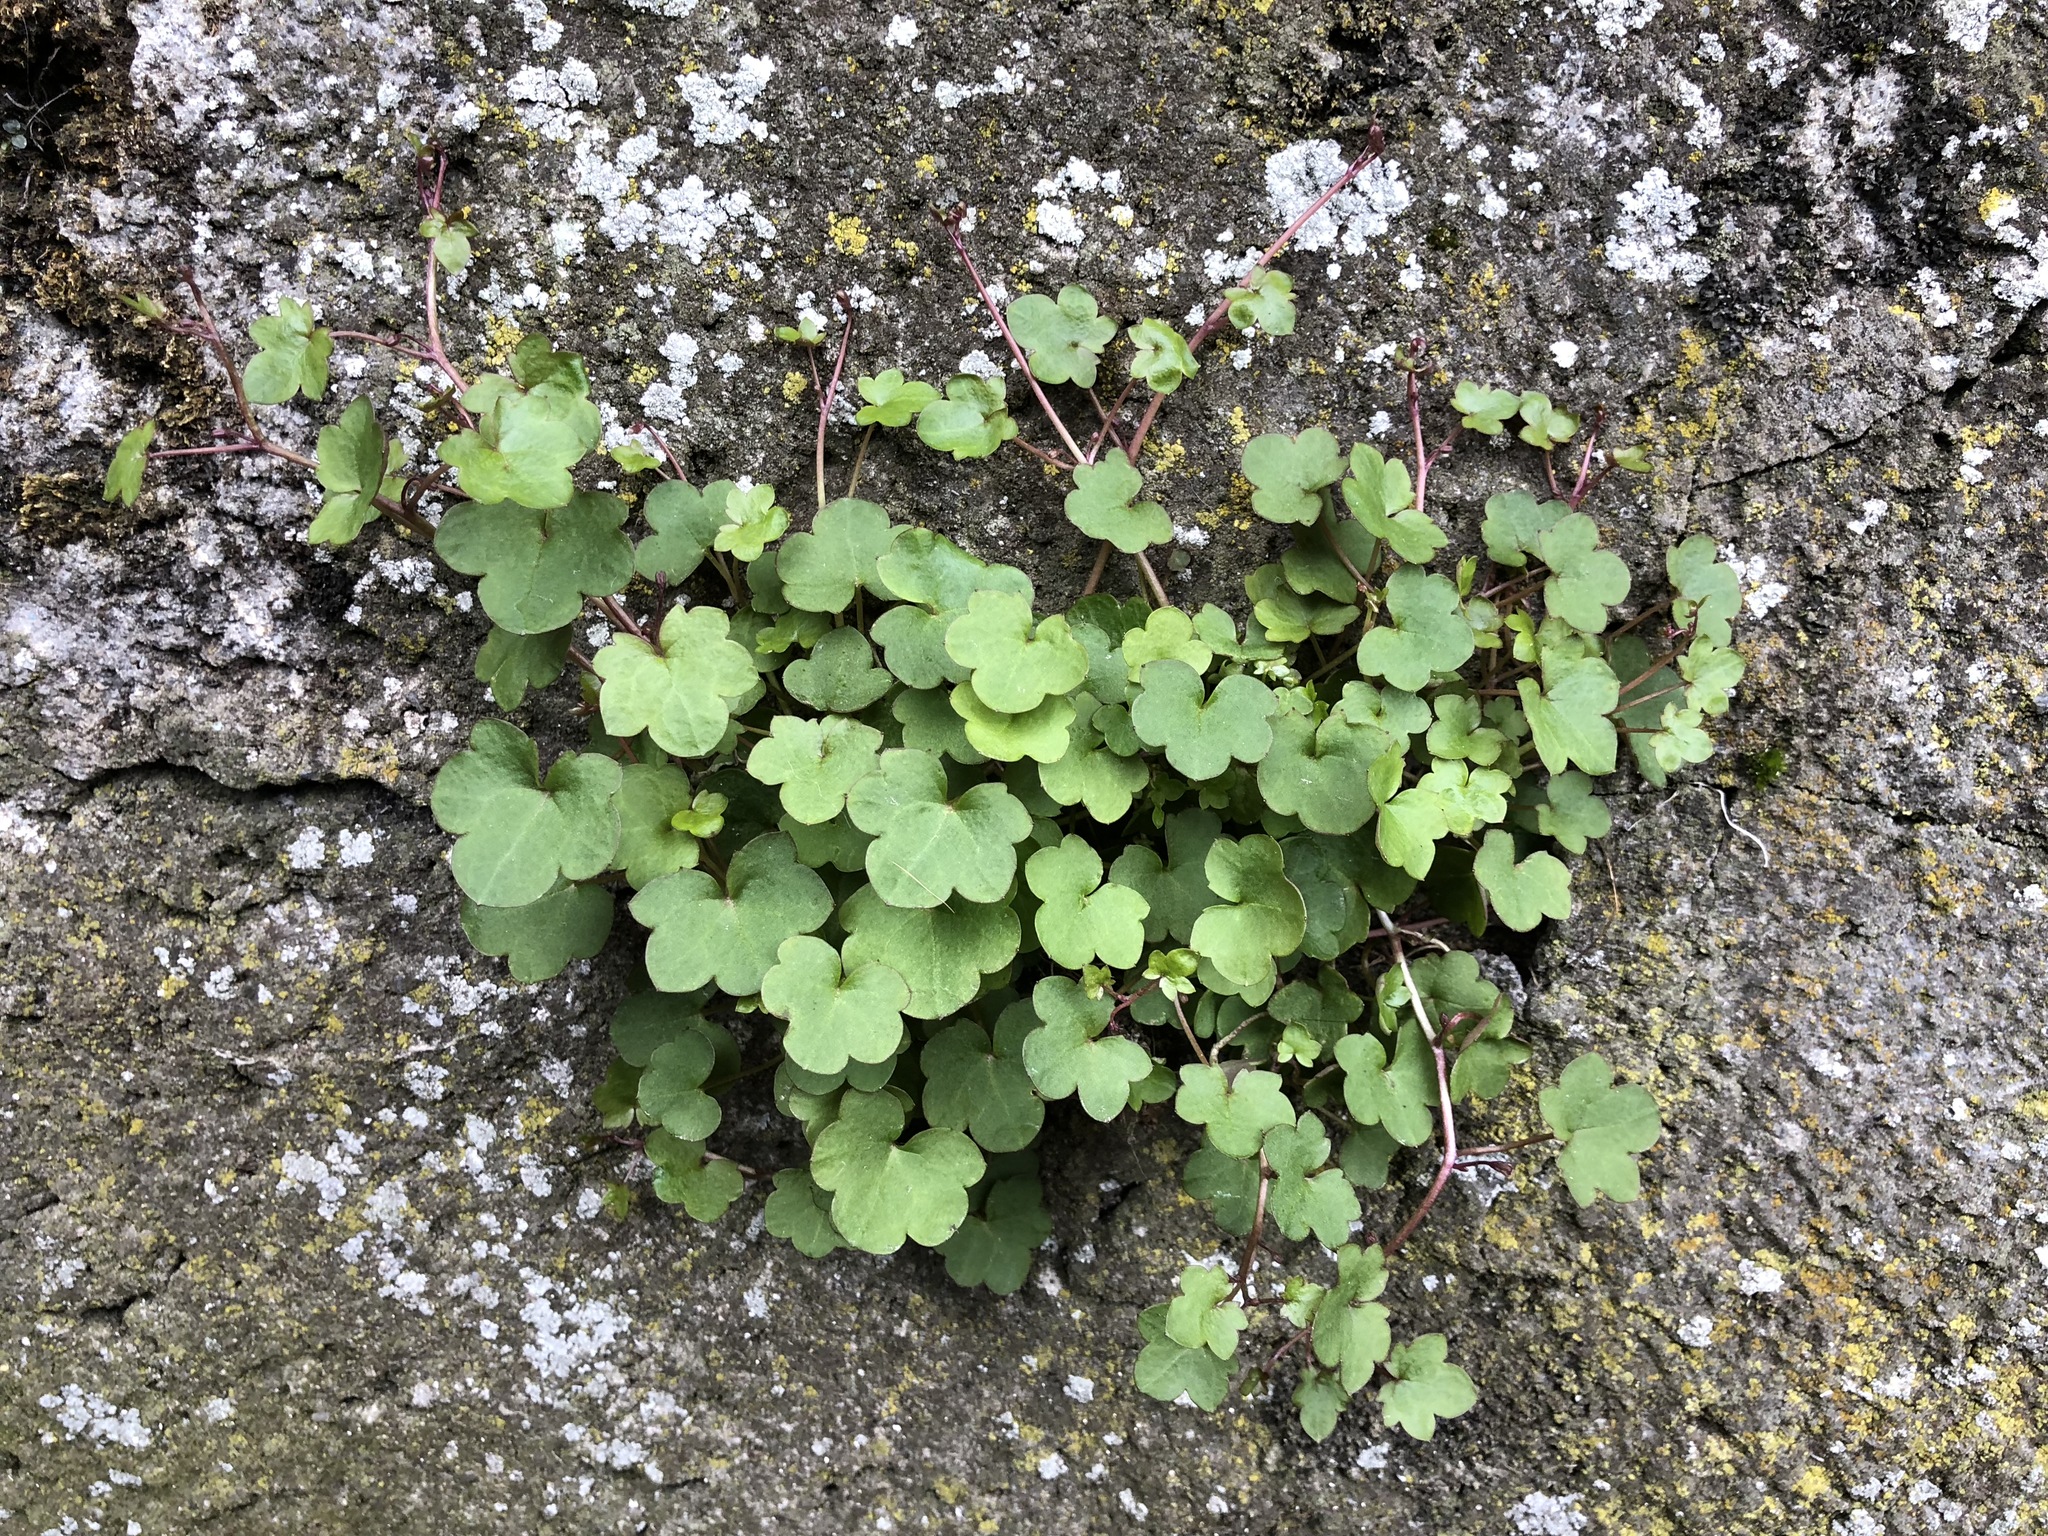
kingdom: Plantae
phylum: Tracheophyta
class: Magnoliopsida
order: Lamiales
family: Plantaginaceae
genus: Cymbalaria
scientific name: Cymbalaria muralis
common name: Ivy-leaved toadflax
